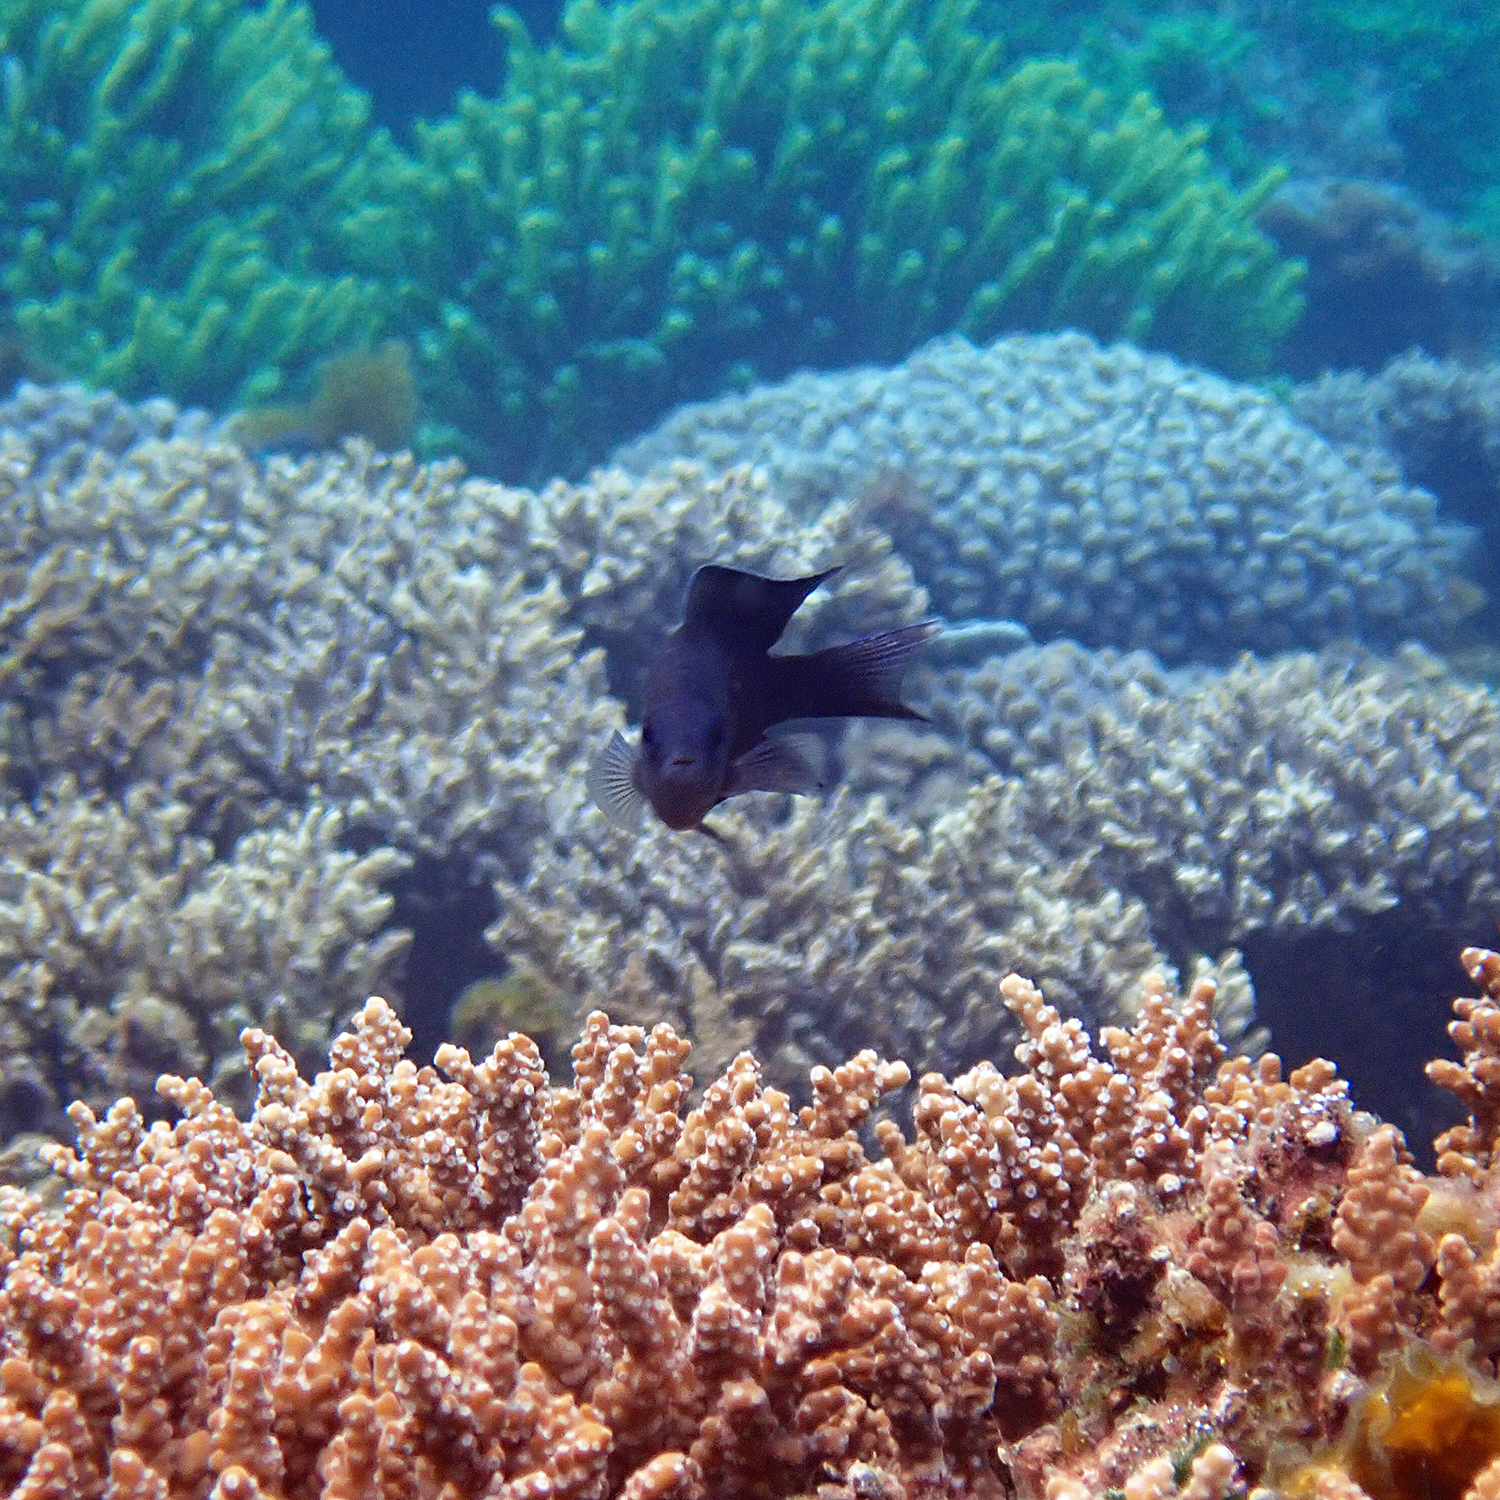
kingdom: Animalia
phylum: Chordata
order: Perciformes
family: Pomacentridae
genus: Chrysiptera
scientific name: Chrysiptera notialis
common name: Southern demoiselle
